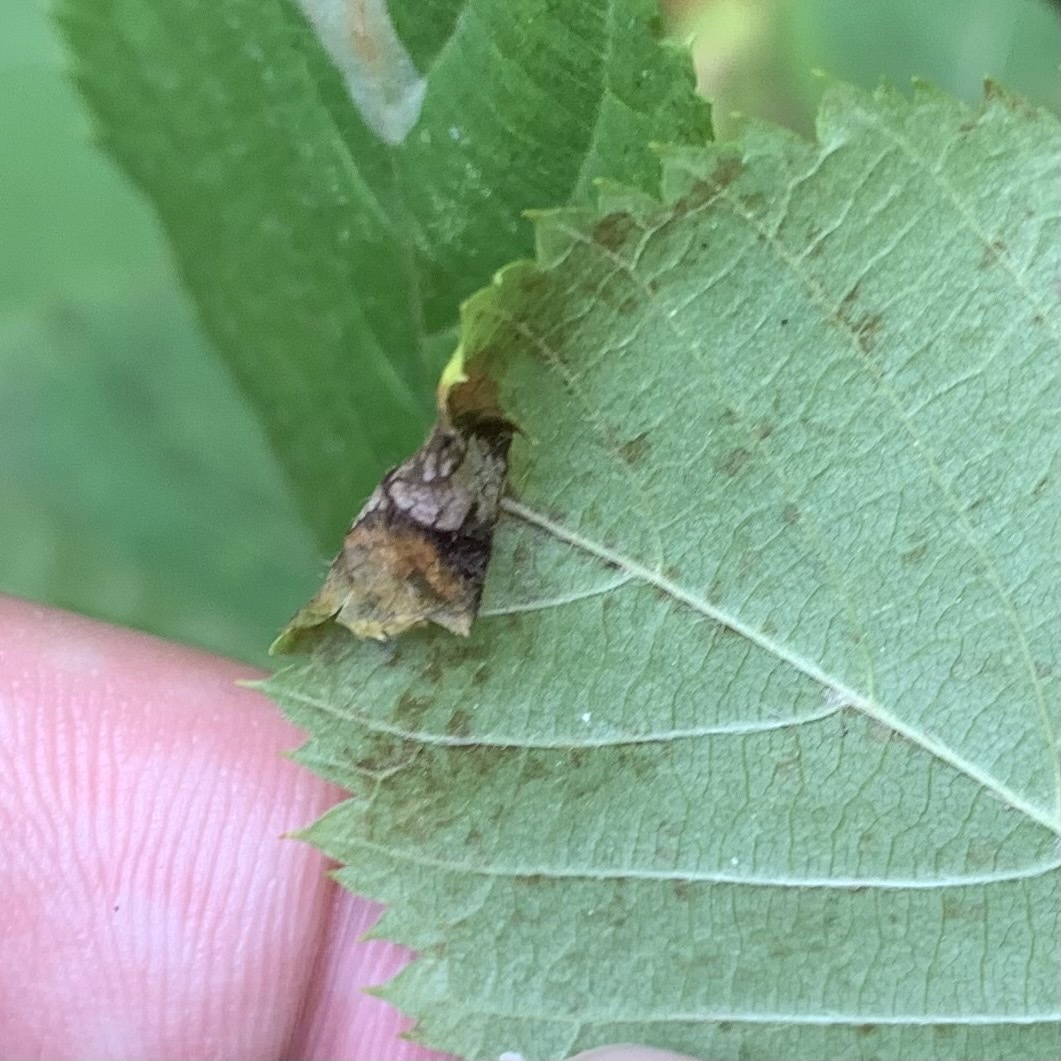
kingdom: Animalia
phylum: Arthropoda
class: Insecta
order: Lepidoptera
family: Gracillariidae
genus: Caloptilia
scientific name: Caloptilia ostryaeella
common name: Ironwood leafcone moth
